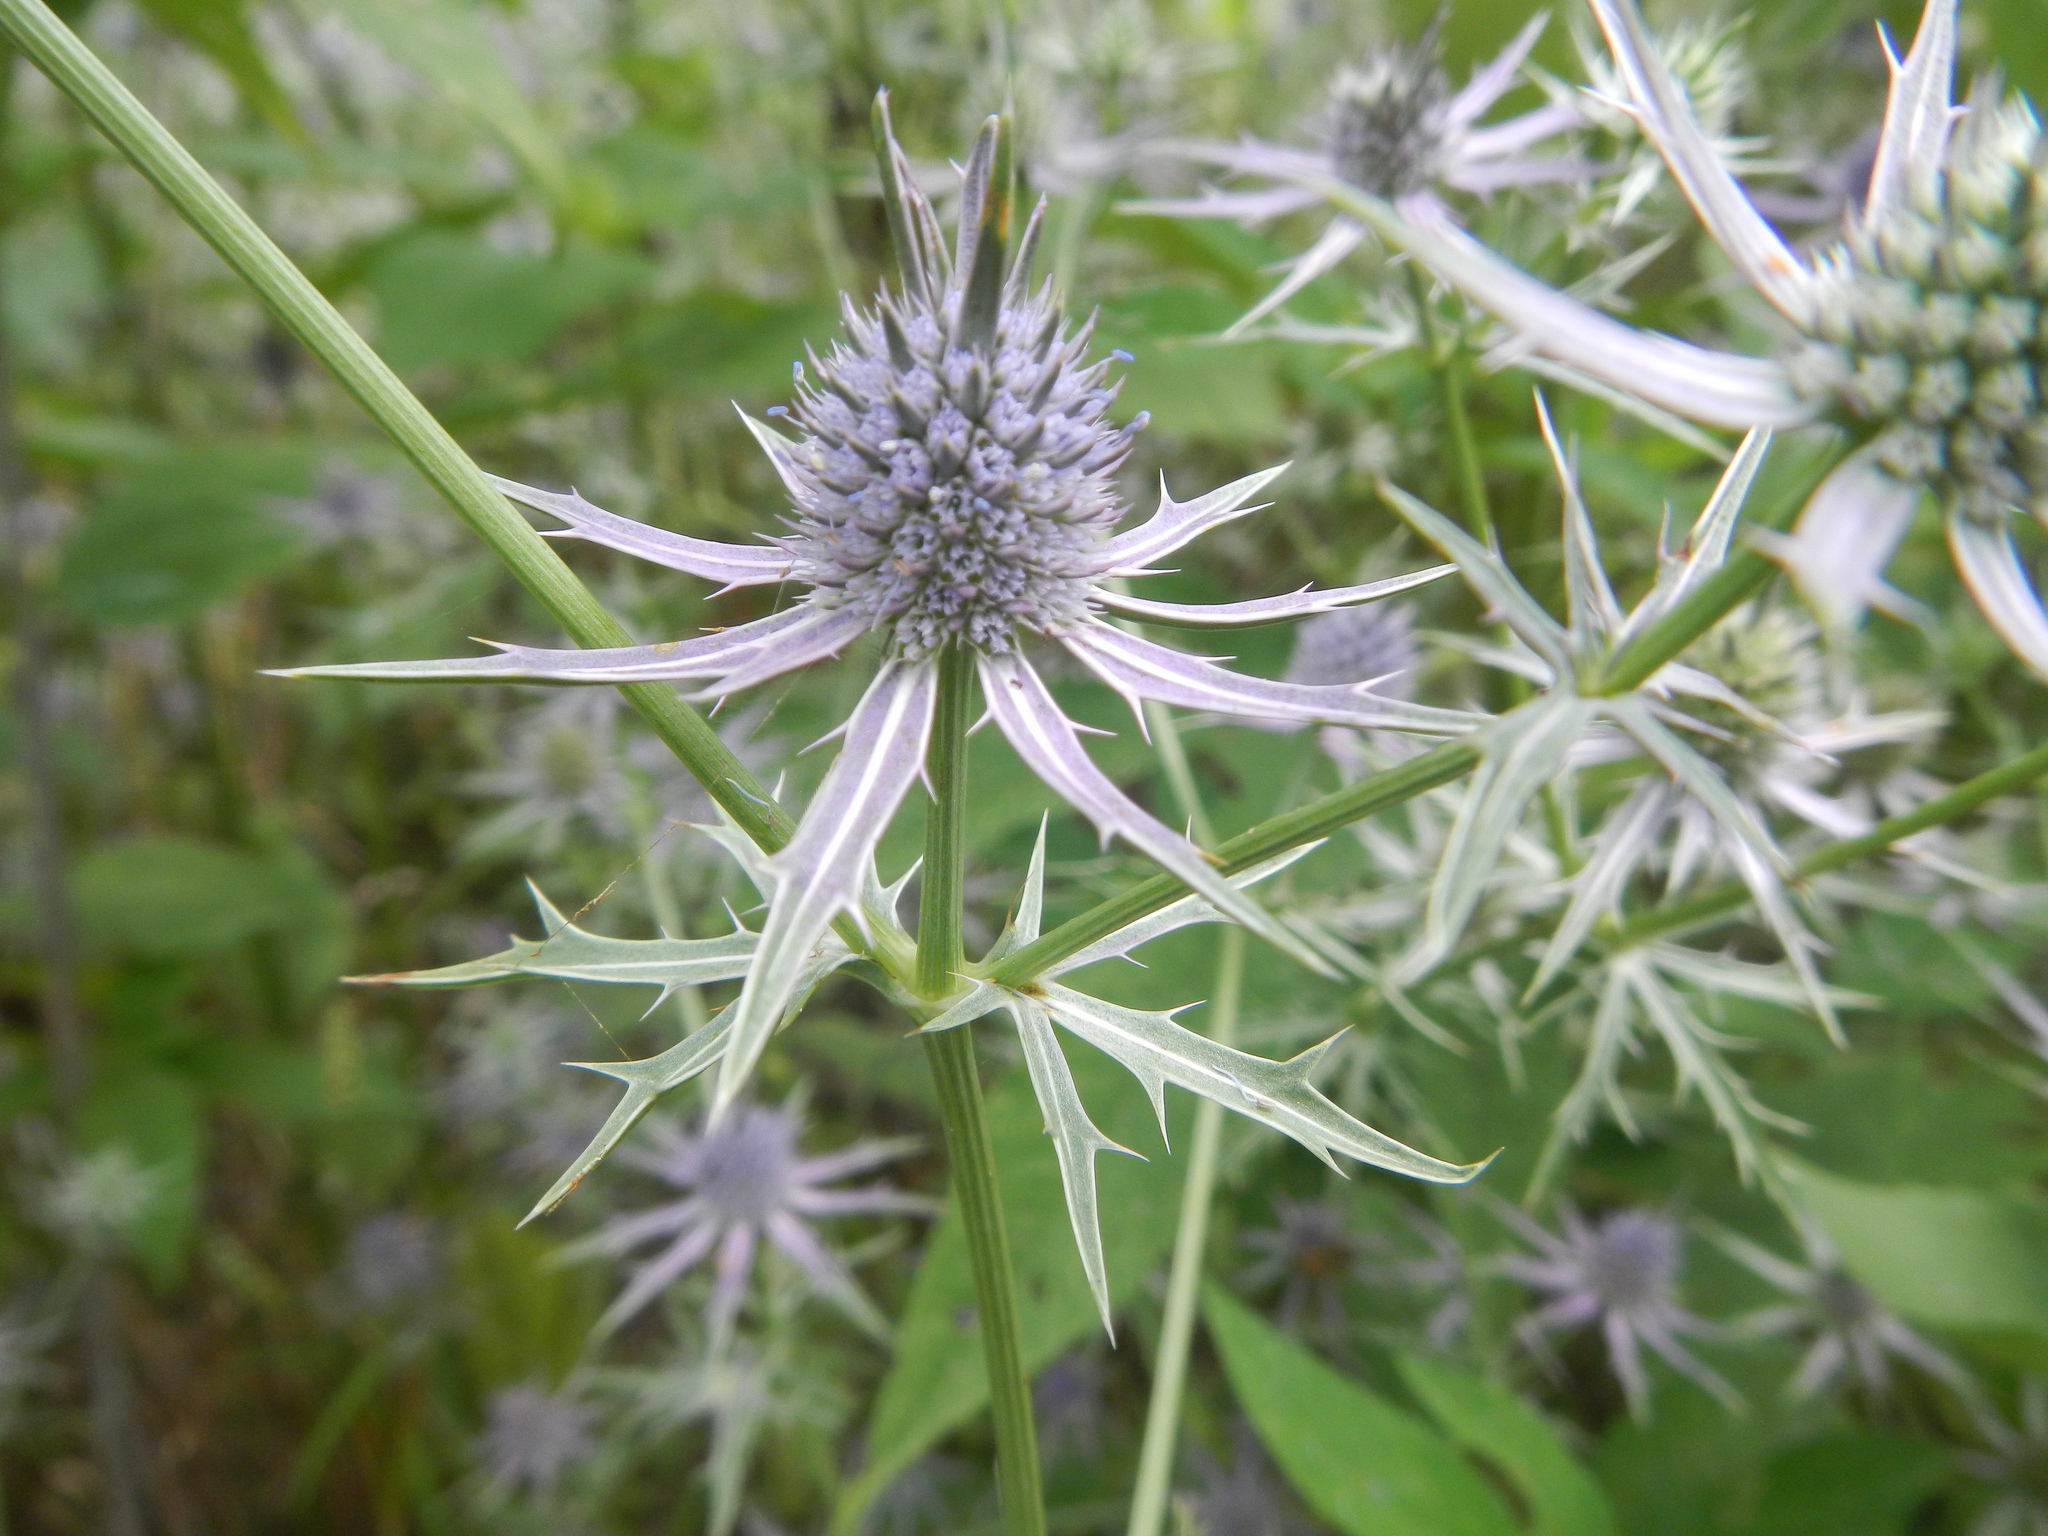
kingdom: Plantae
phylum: Tracheophyta
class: Magnoliopsida
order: Apiales
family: Apiaceae
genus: Eryngium
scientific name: Eryngium hookeri
